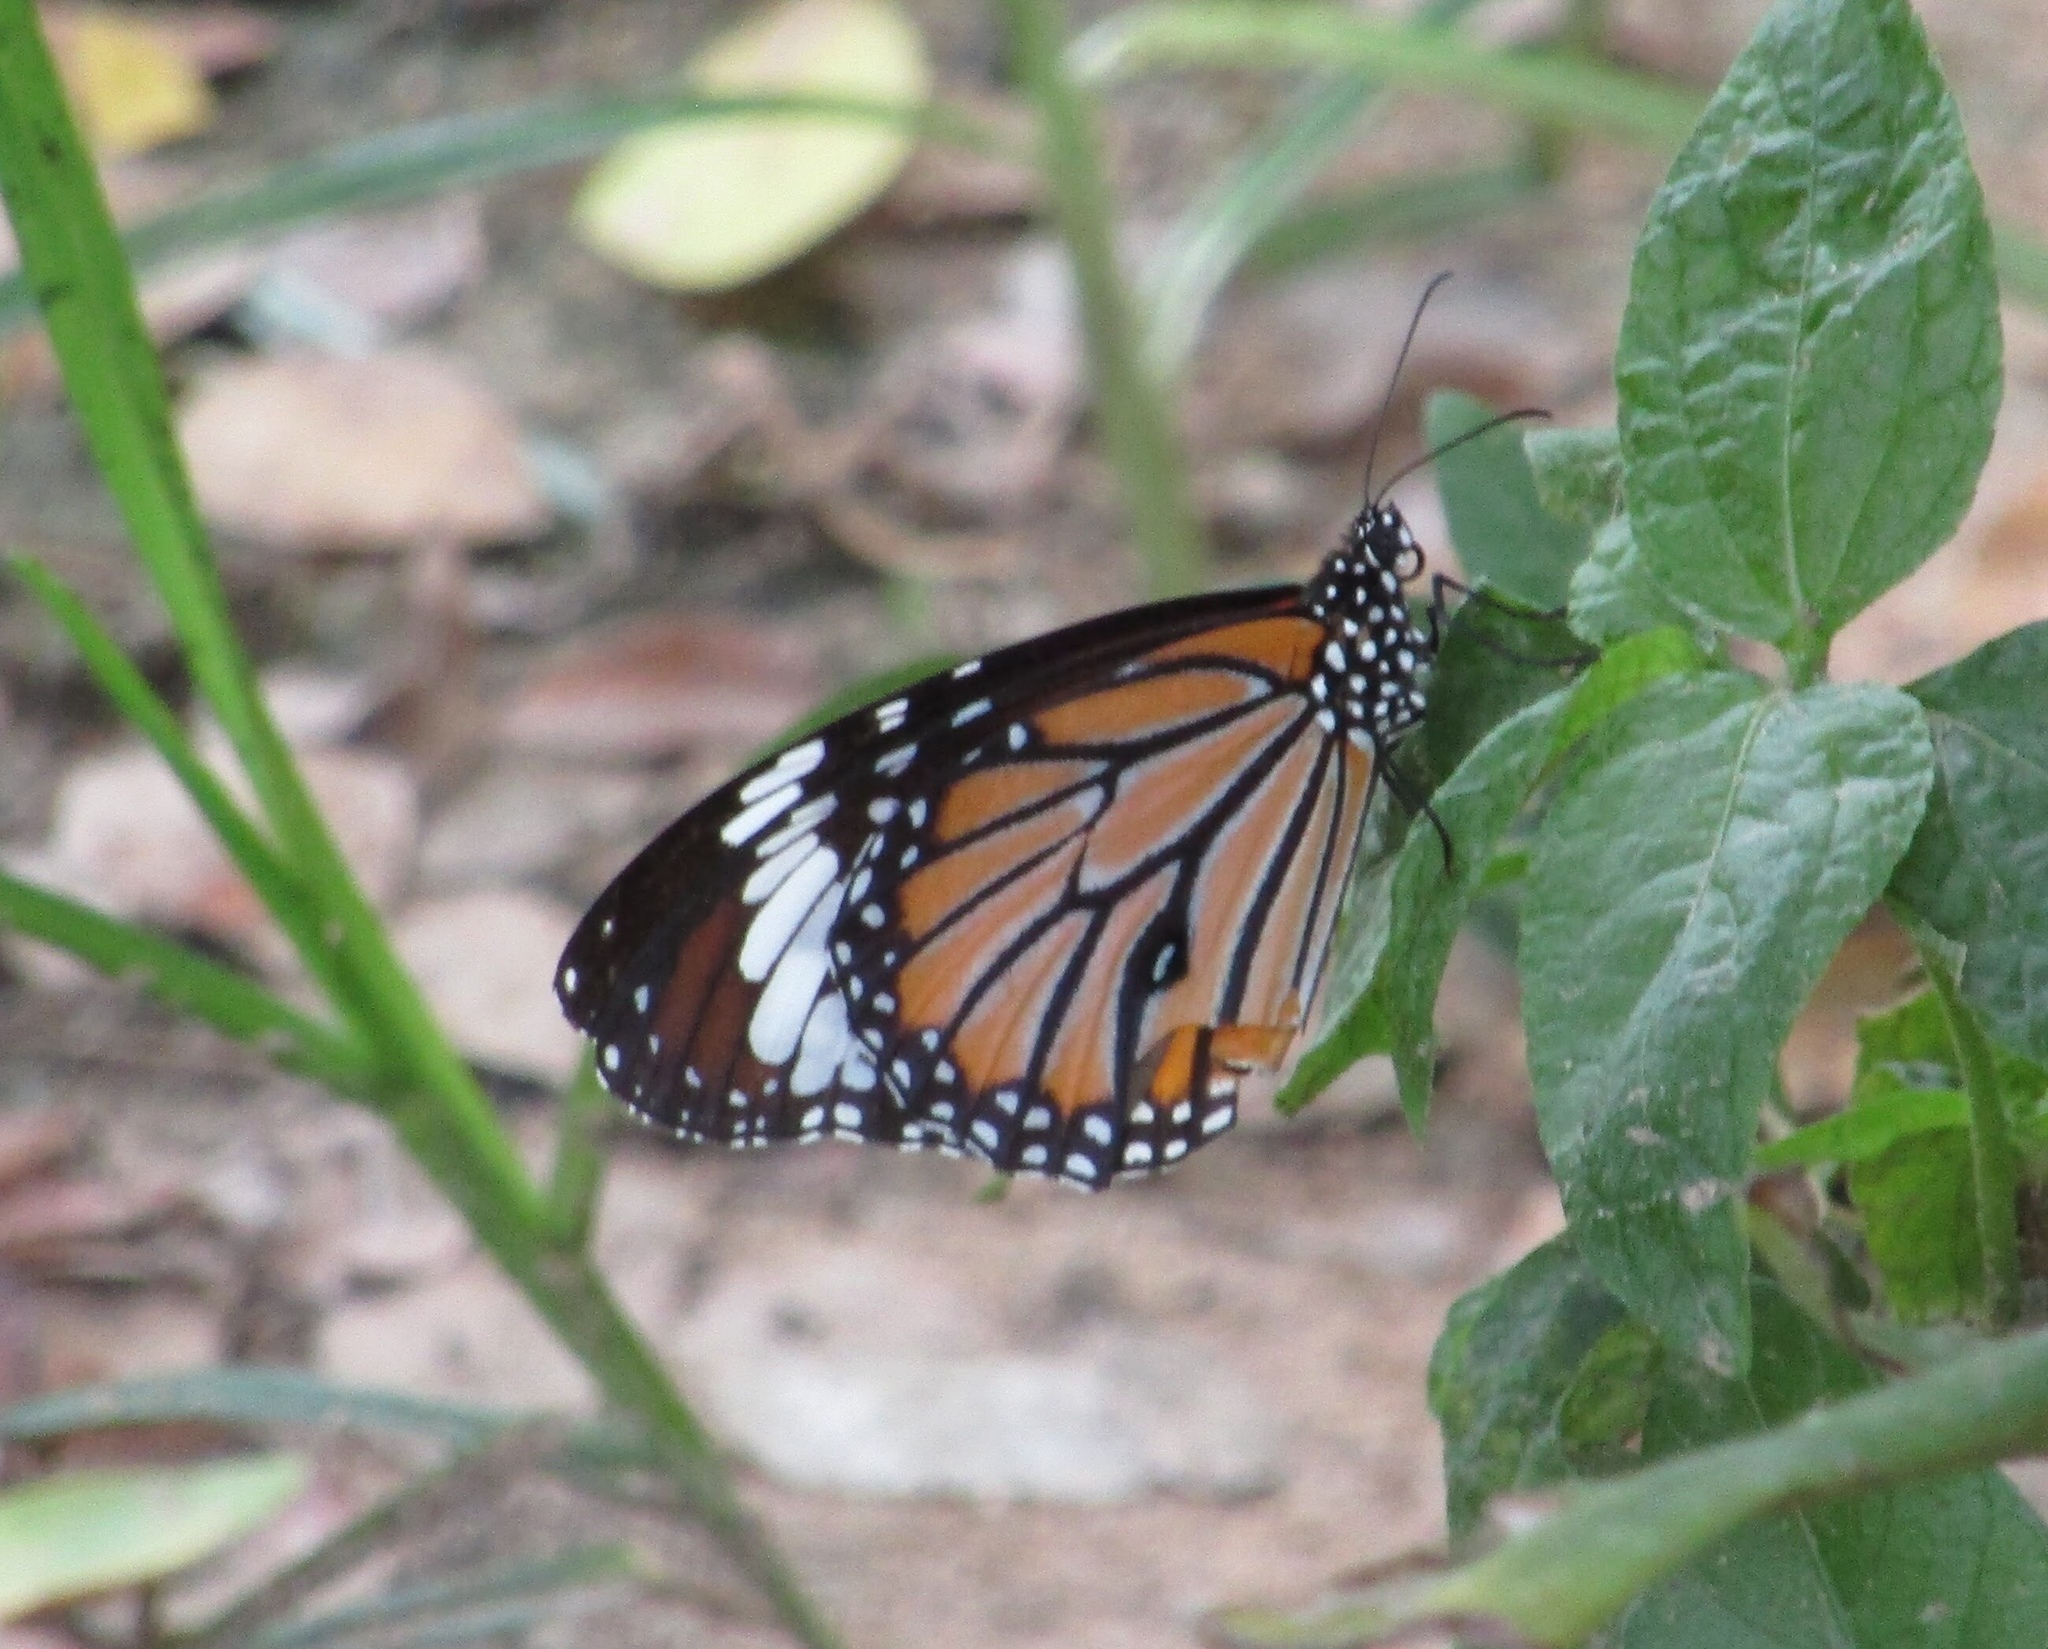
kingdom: Animalia
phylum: Arthropoda
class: Insecta
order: Lepidoptera
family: Nymphalidae
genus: Danaus
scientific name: Danaus genutia
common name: Common tiger butterfly
